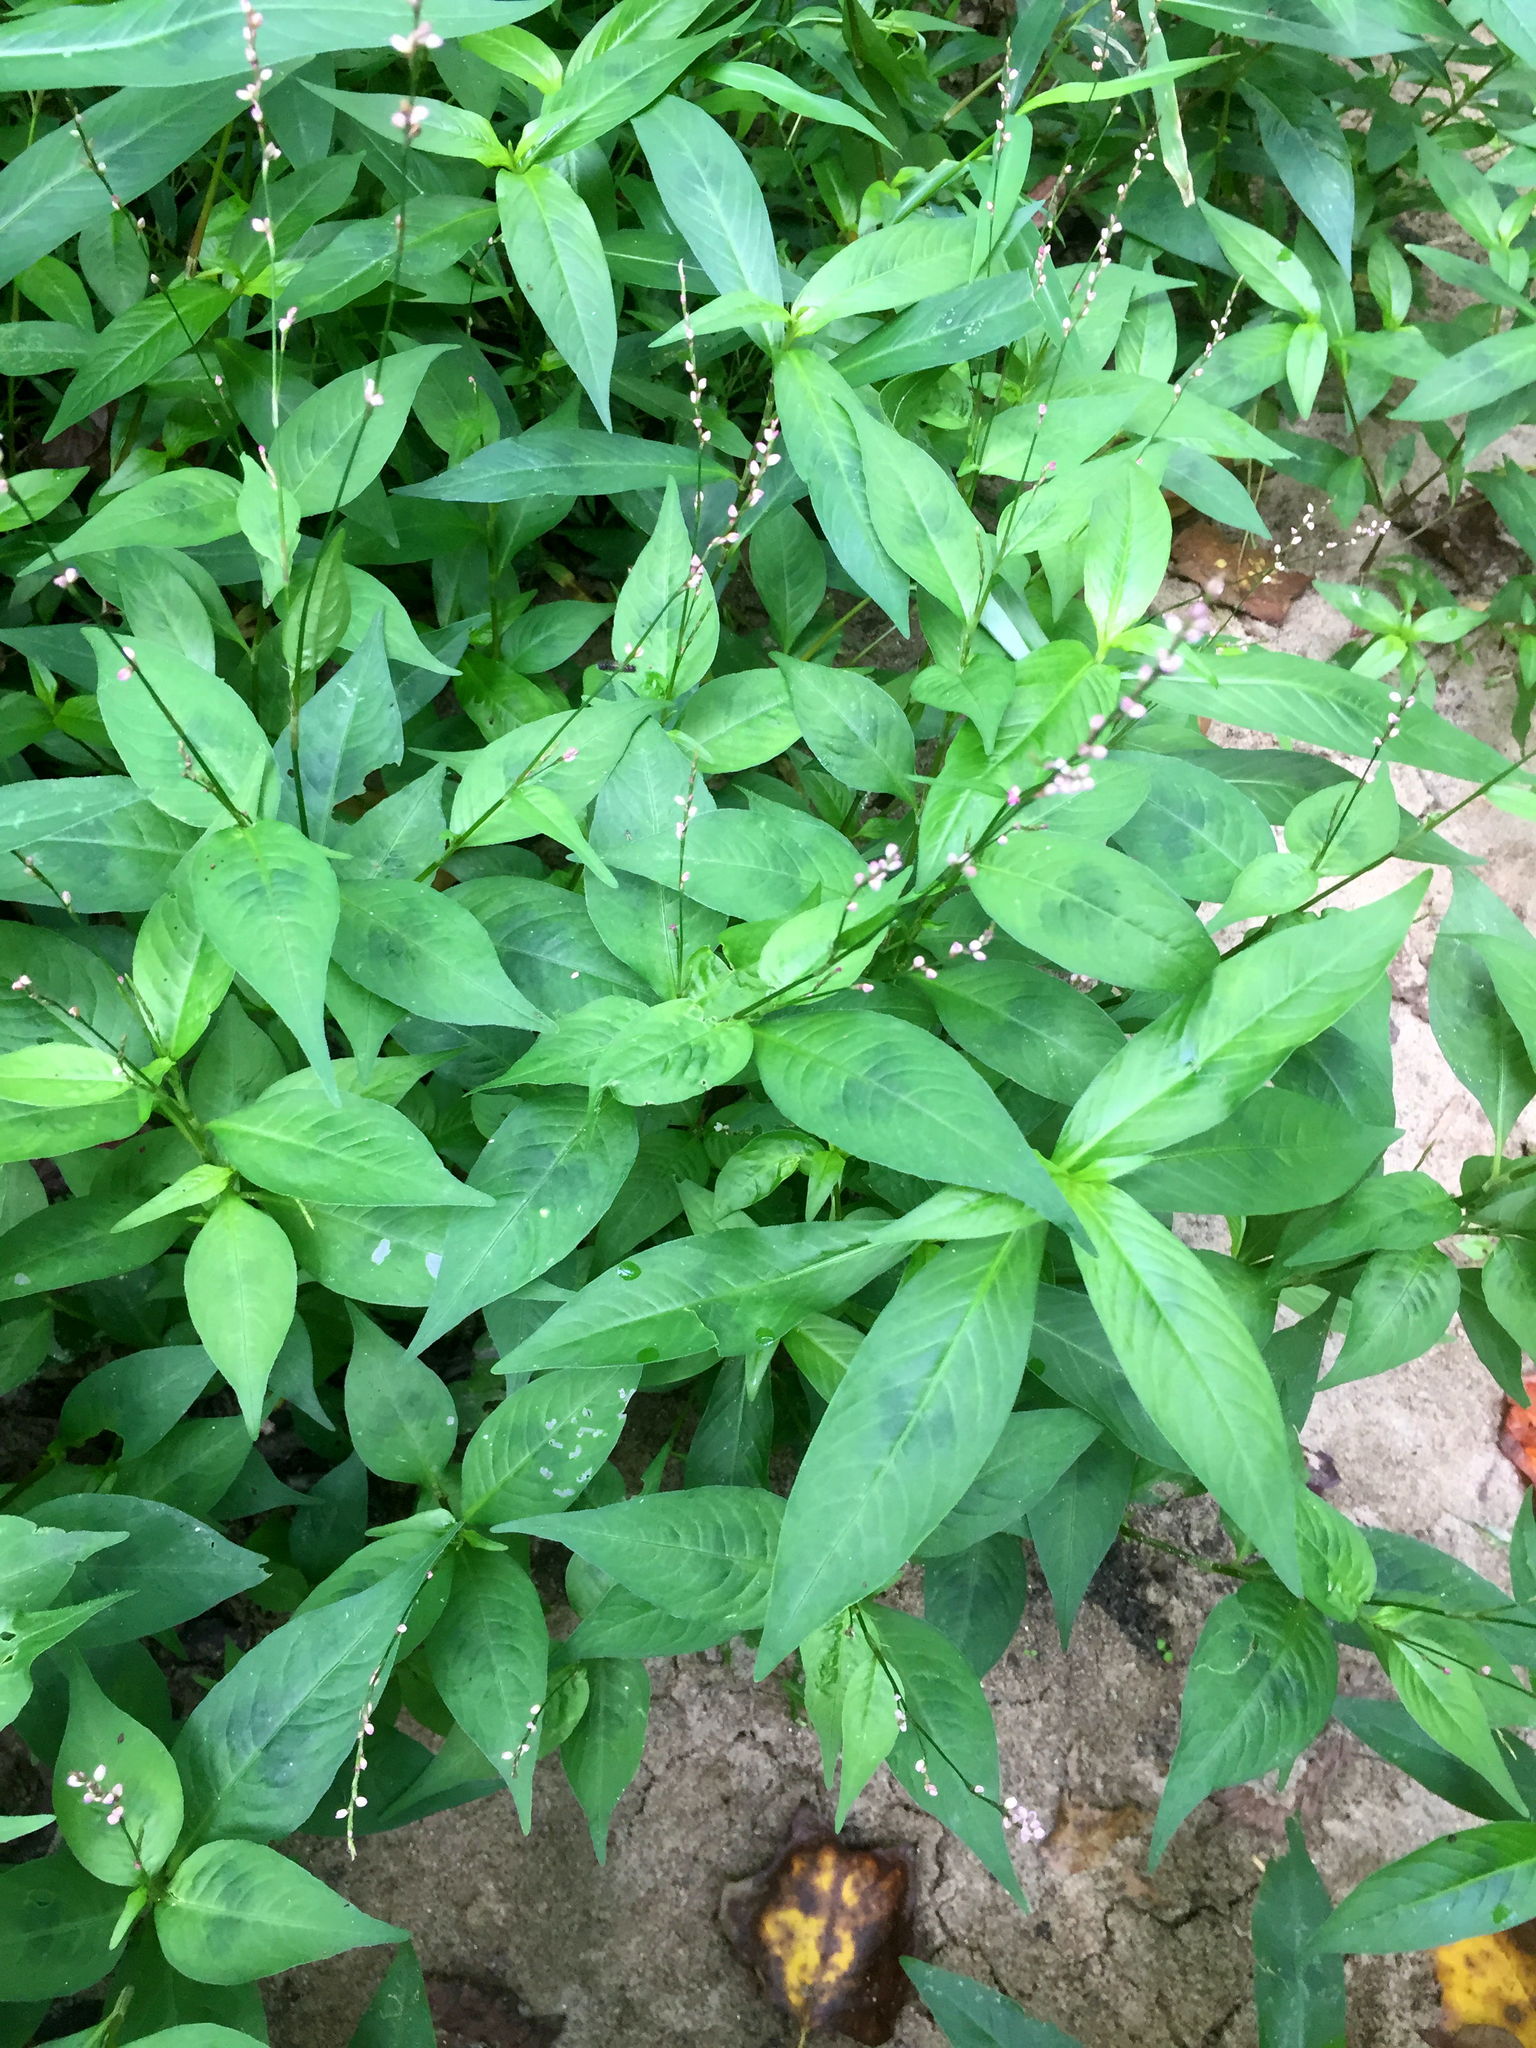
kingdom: Plantae
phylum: Tracheophyta
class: Magnoliopsida
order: Caryophyllales
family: Polygonaceae
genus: Persicaria
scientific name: Persicaria longiseta
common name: Bristly lady's-thumb
